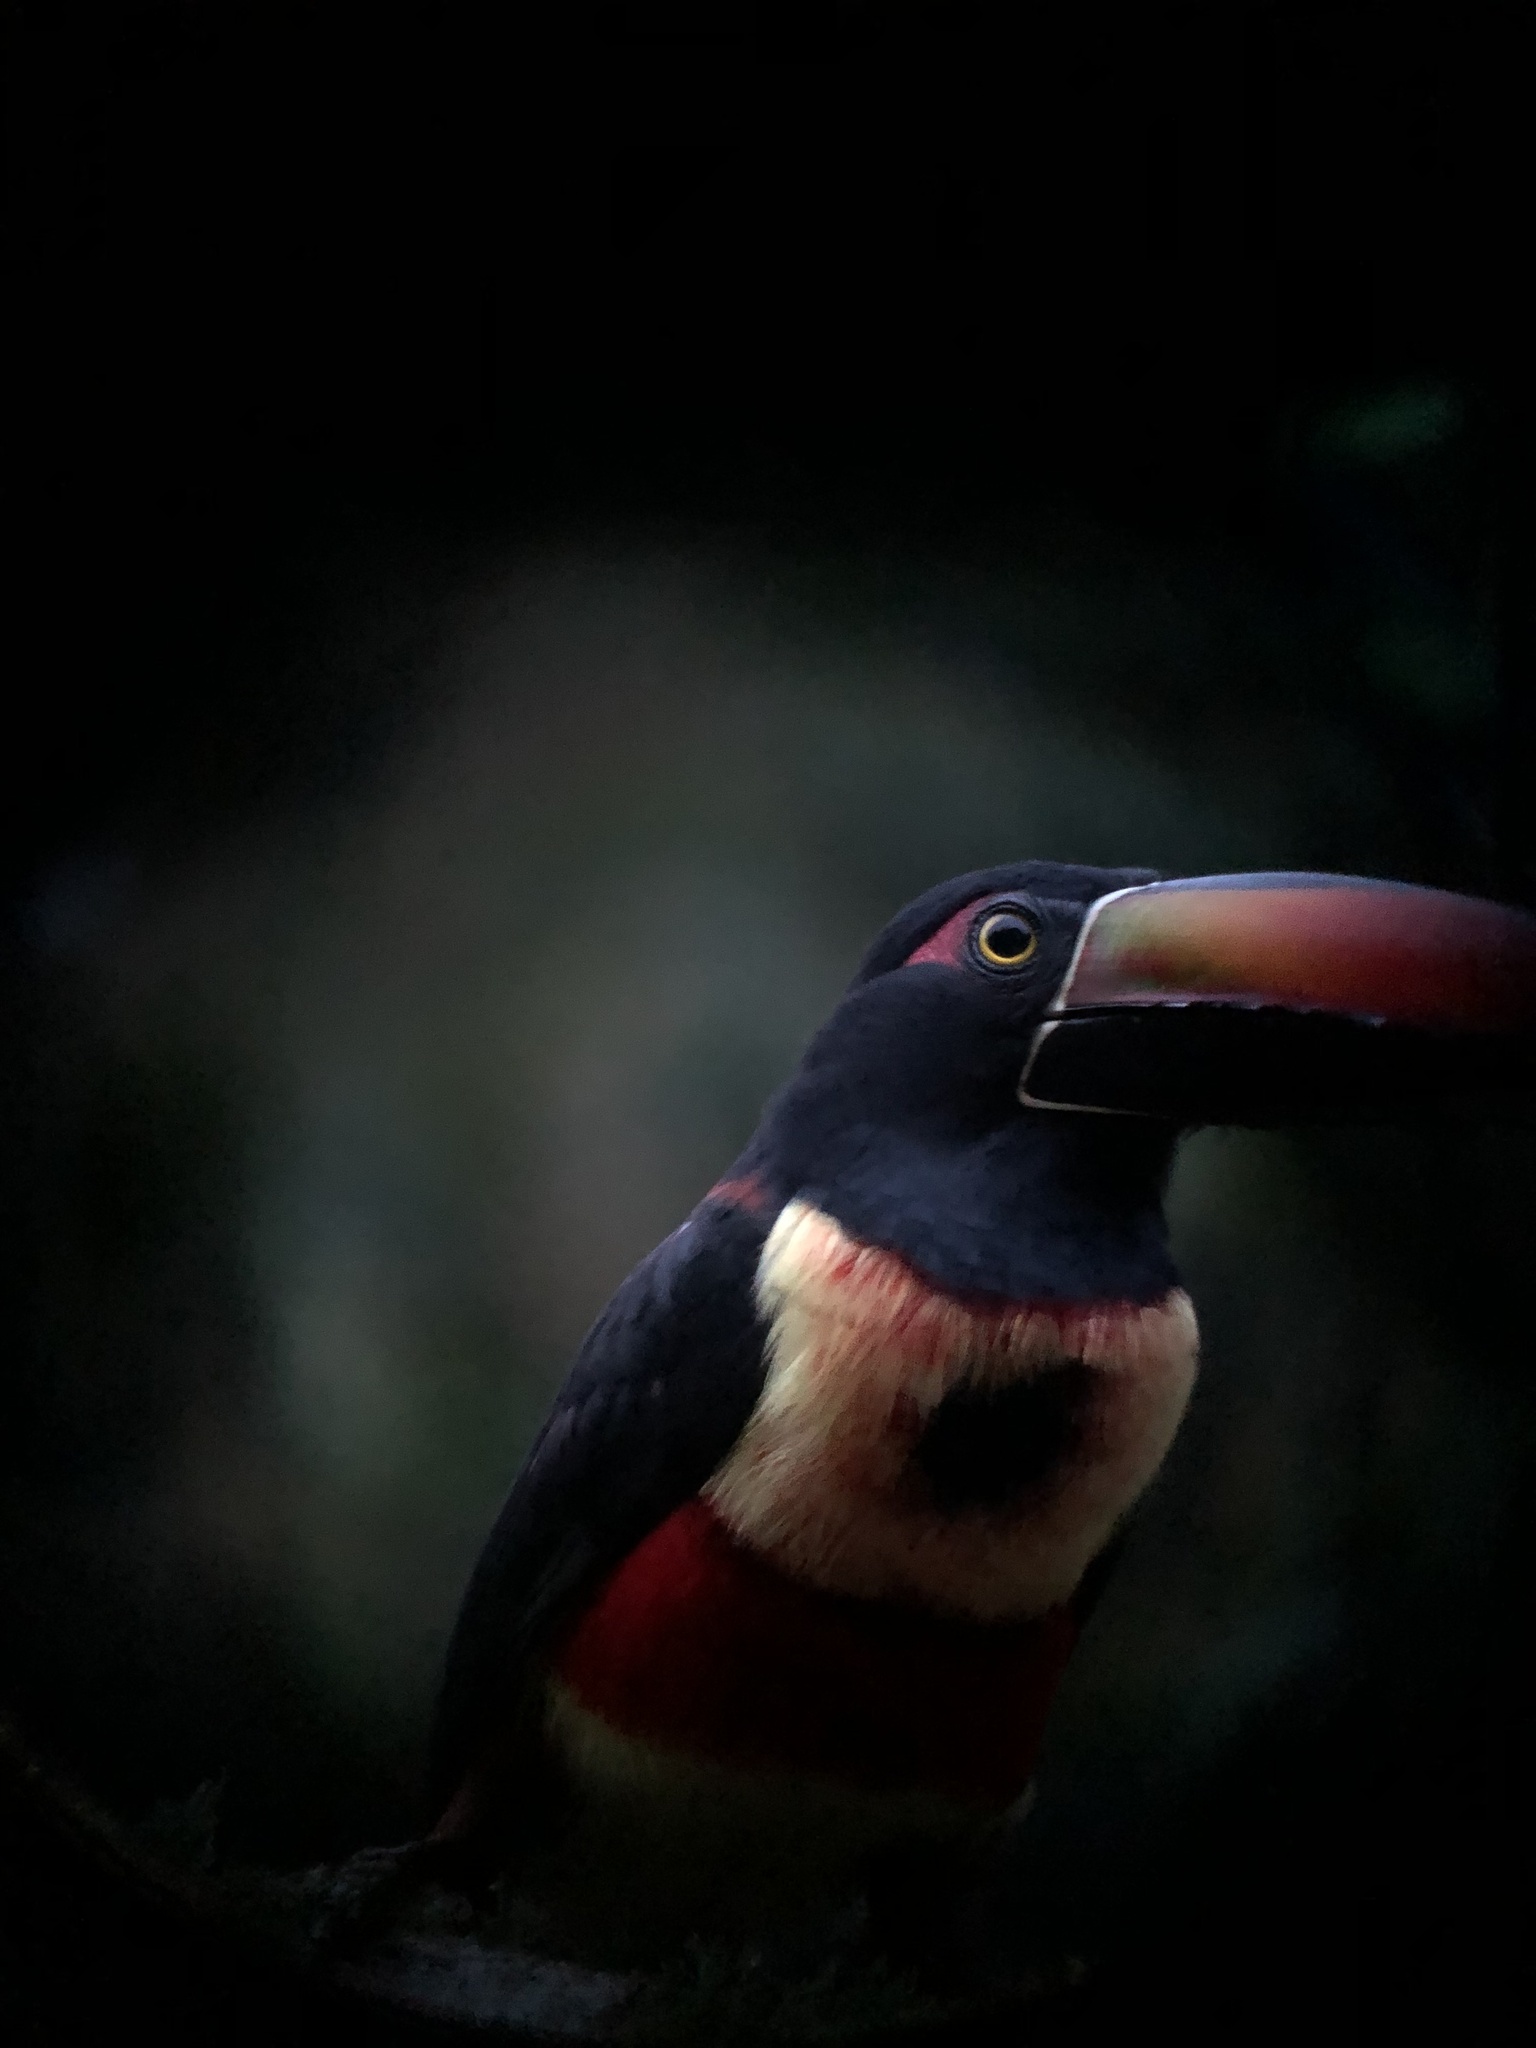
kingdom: Animalia
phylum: Chordata
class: Aves
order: Piciformes
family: Ramphastidae
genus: Pteroglossus
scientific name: Pteroglossus frantzii
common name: Fiery-billed aracari
